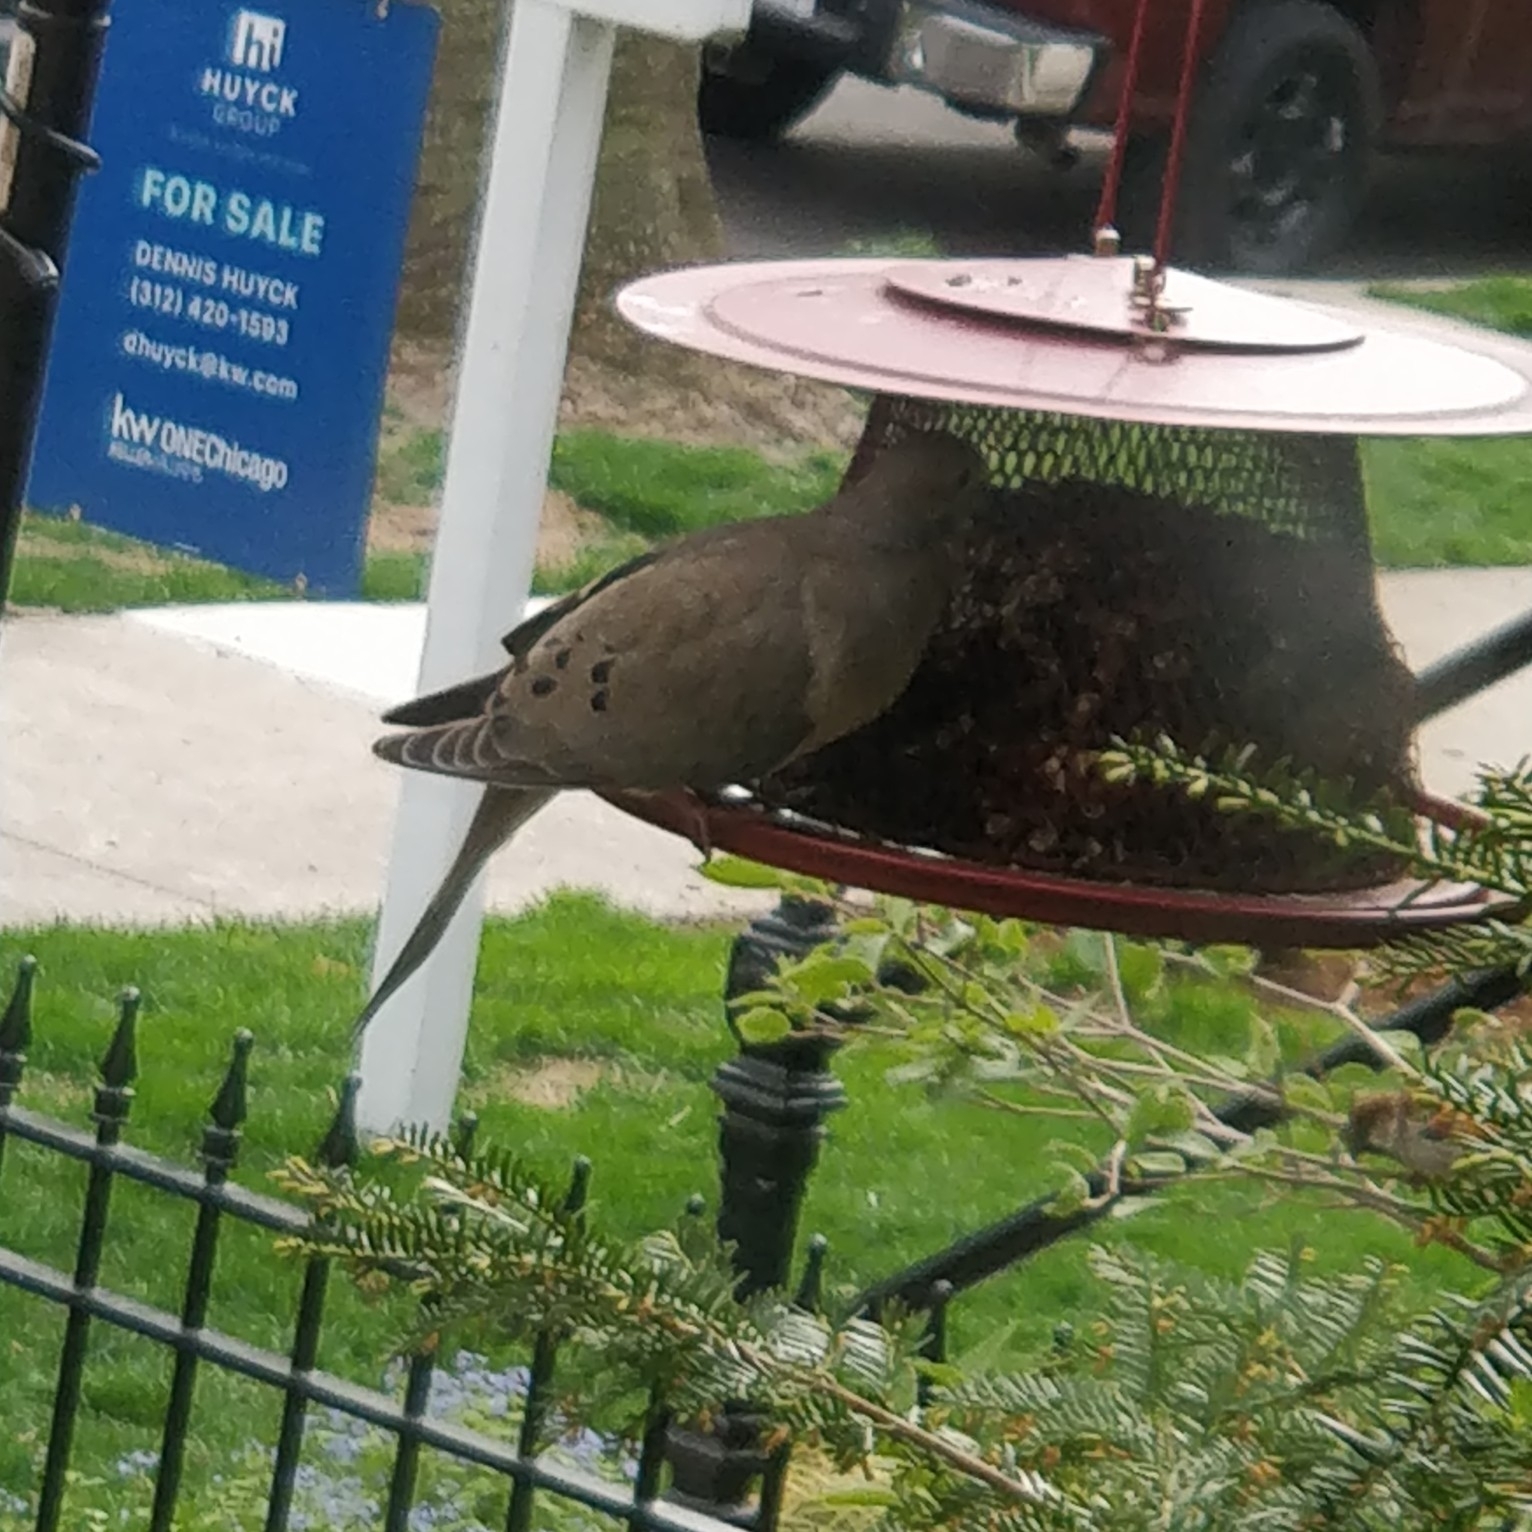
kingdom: Animalia
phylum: Chordata
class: Aves
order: Columbiformes
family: Columbidae
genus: Zenaida
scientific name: Zenaida macroura
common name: Mourning dove
